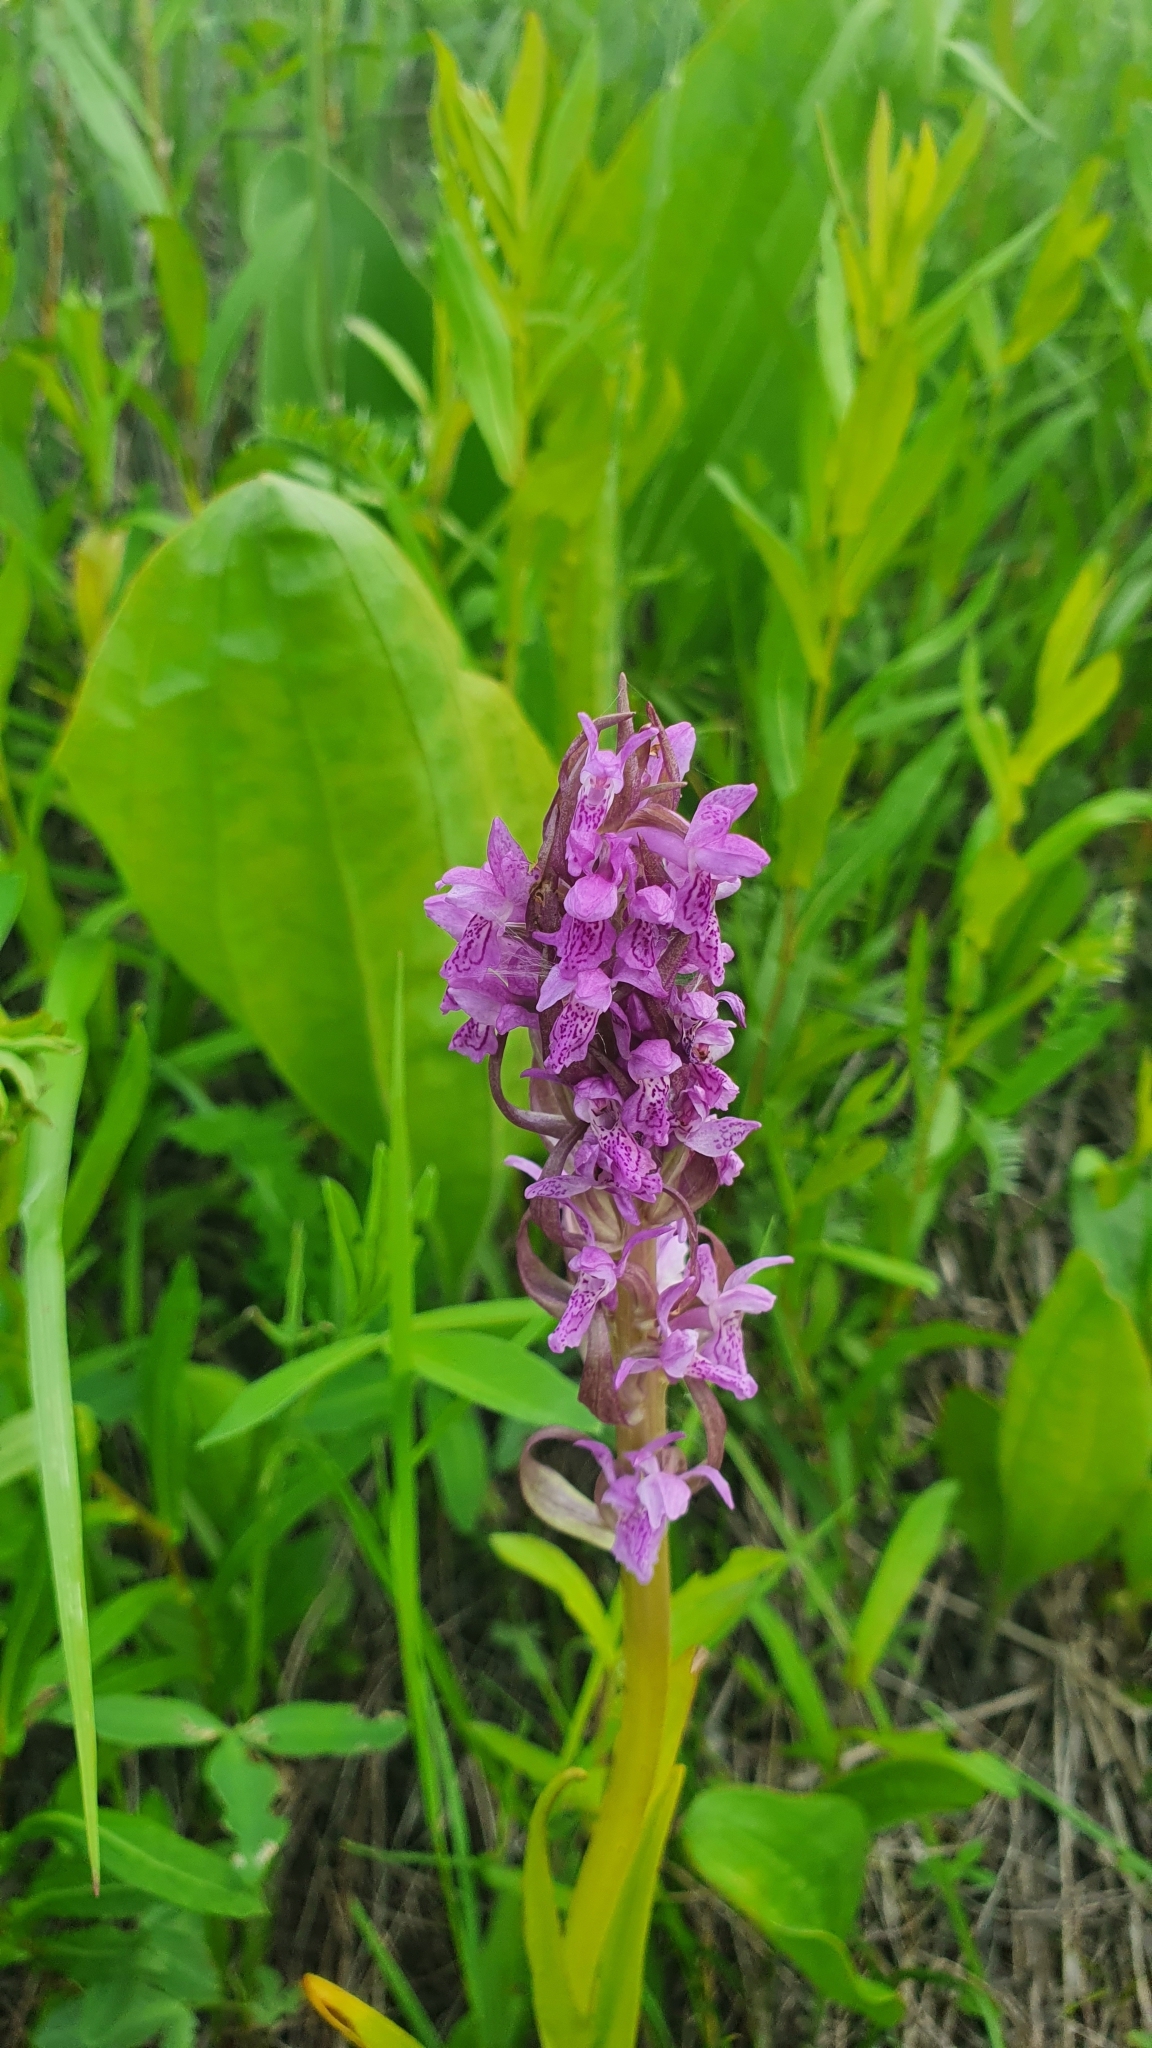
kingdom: Plantae
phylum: Tracheophyta
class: Liliopsida
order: Asparagales
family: Orchidaceae
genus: Dactylorhiza
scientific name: Dactylorhiza incarnata
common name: Early marsh-orchid
